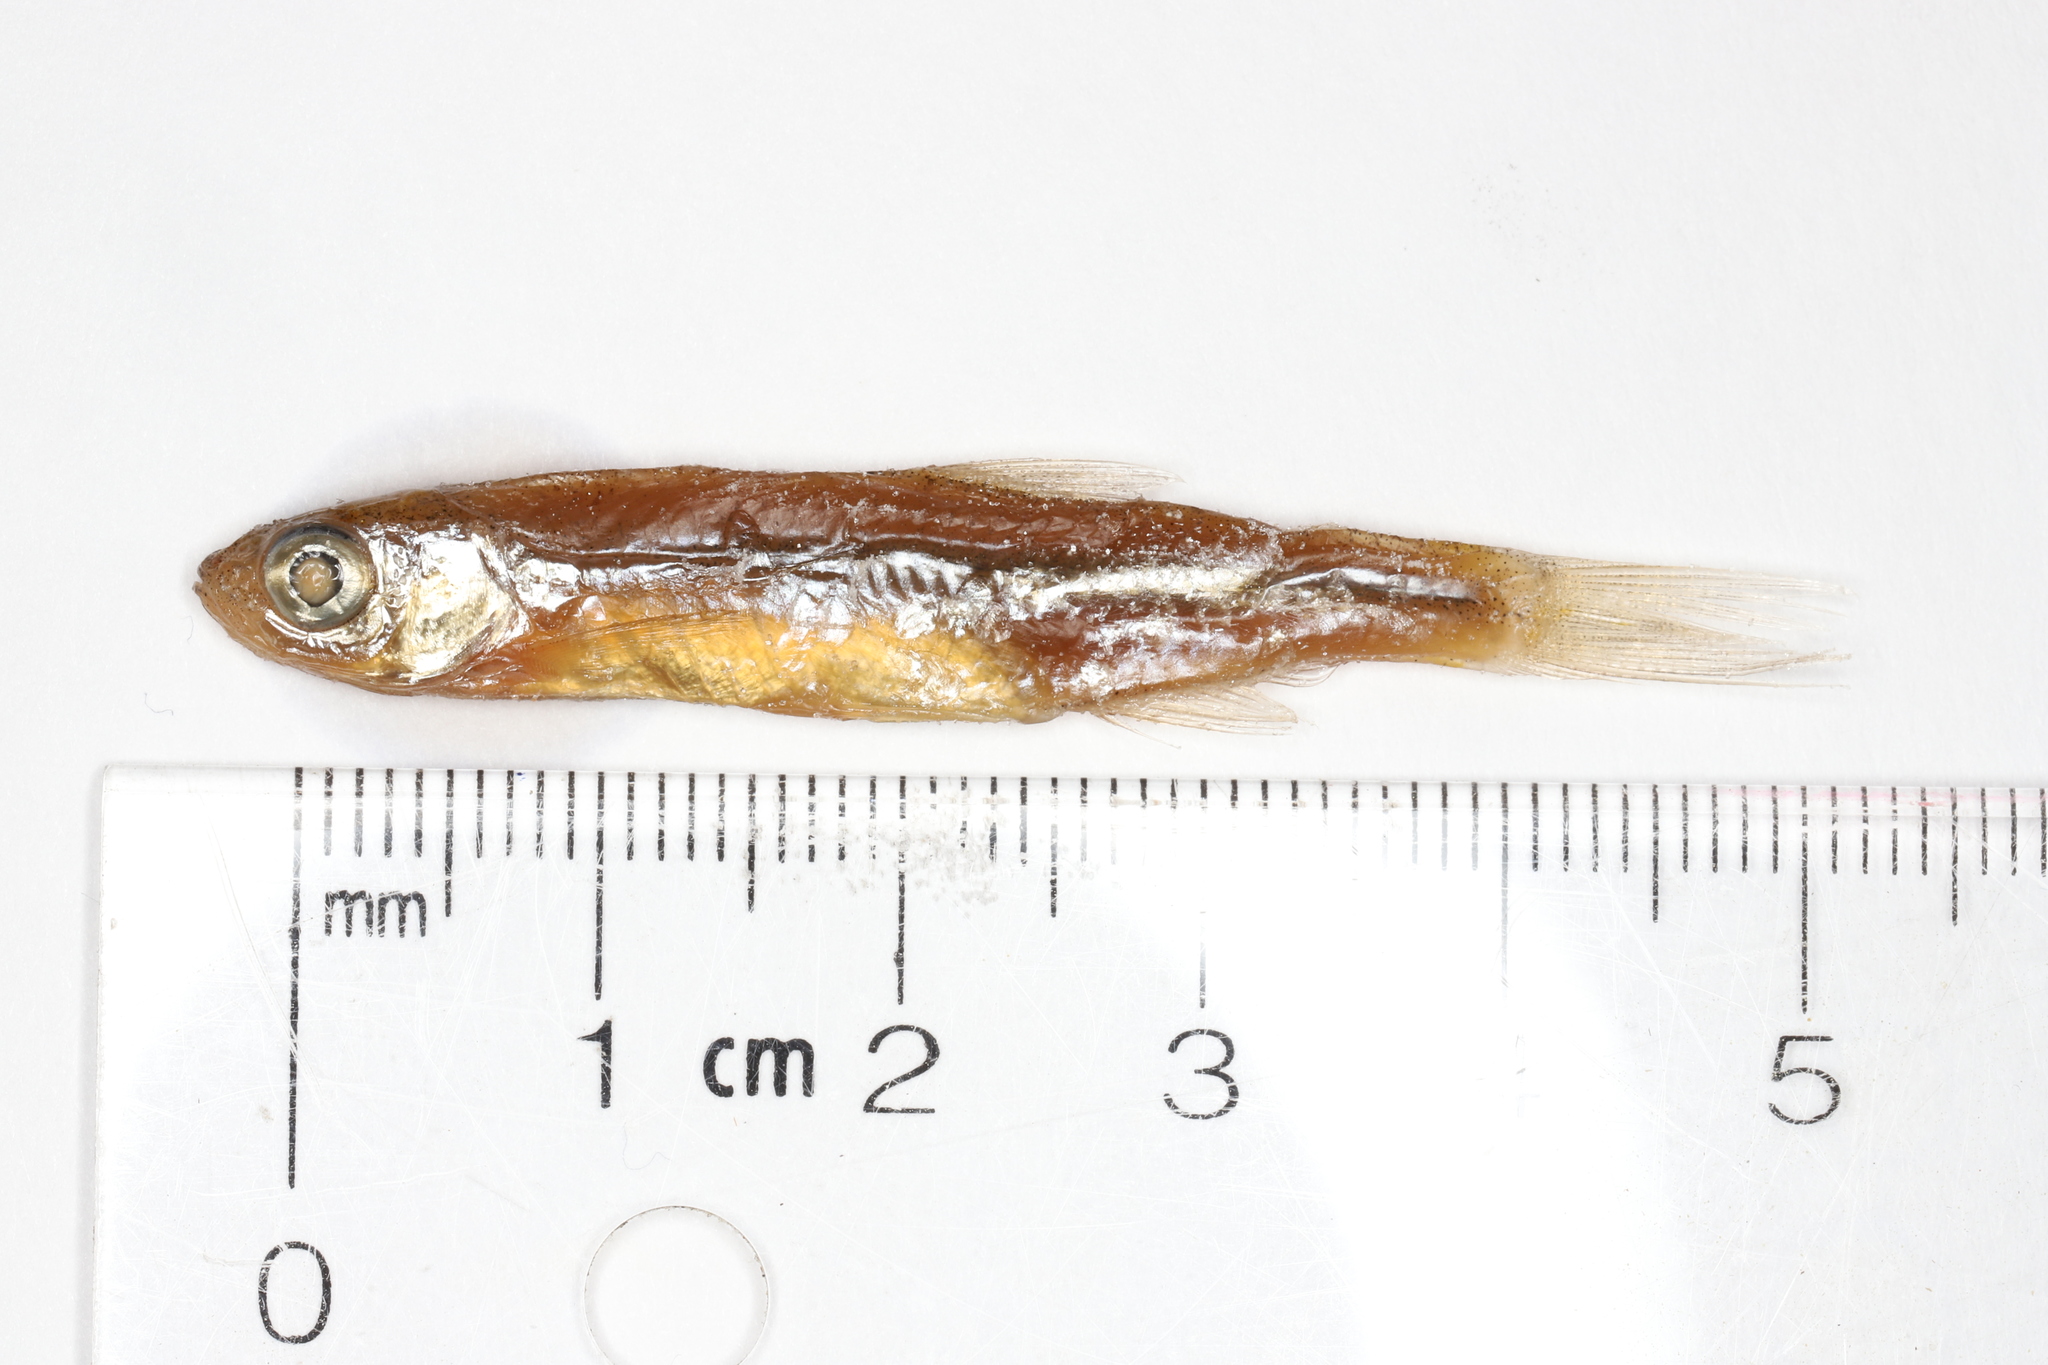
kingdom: Animalia
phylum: Chordata
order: Cypriniformes
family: Cyprinidae
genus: Notropis
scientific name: Notropis atherinoides
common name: Emerald shiner
